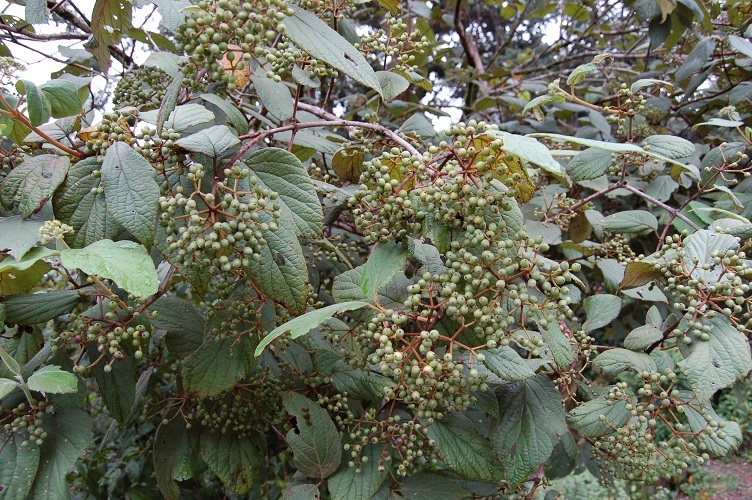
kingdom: Plantae
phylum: Tracheophyta
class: Magnoliopsida
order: Dipsacales
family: Viburnaceae
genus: Viburnum
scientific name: Viburnum jucundum
